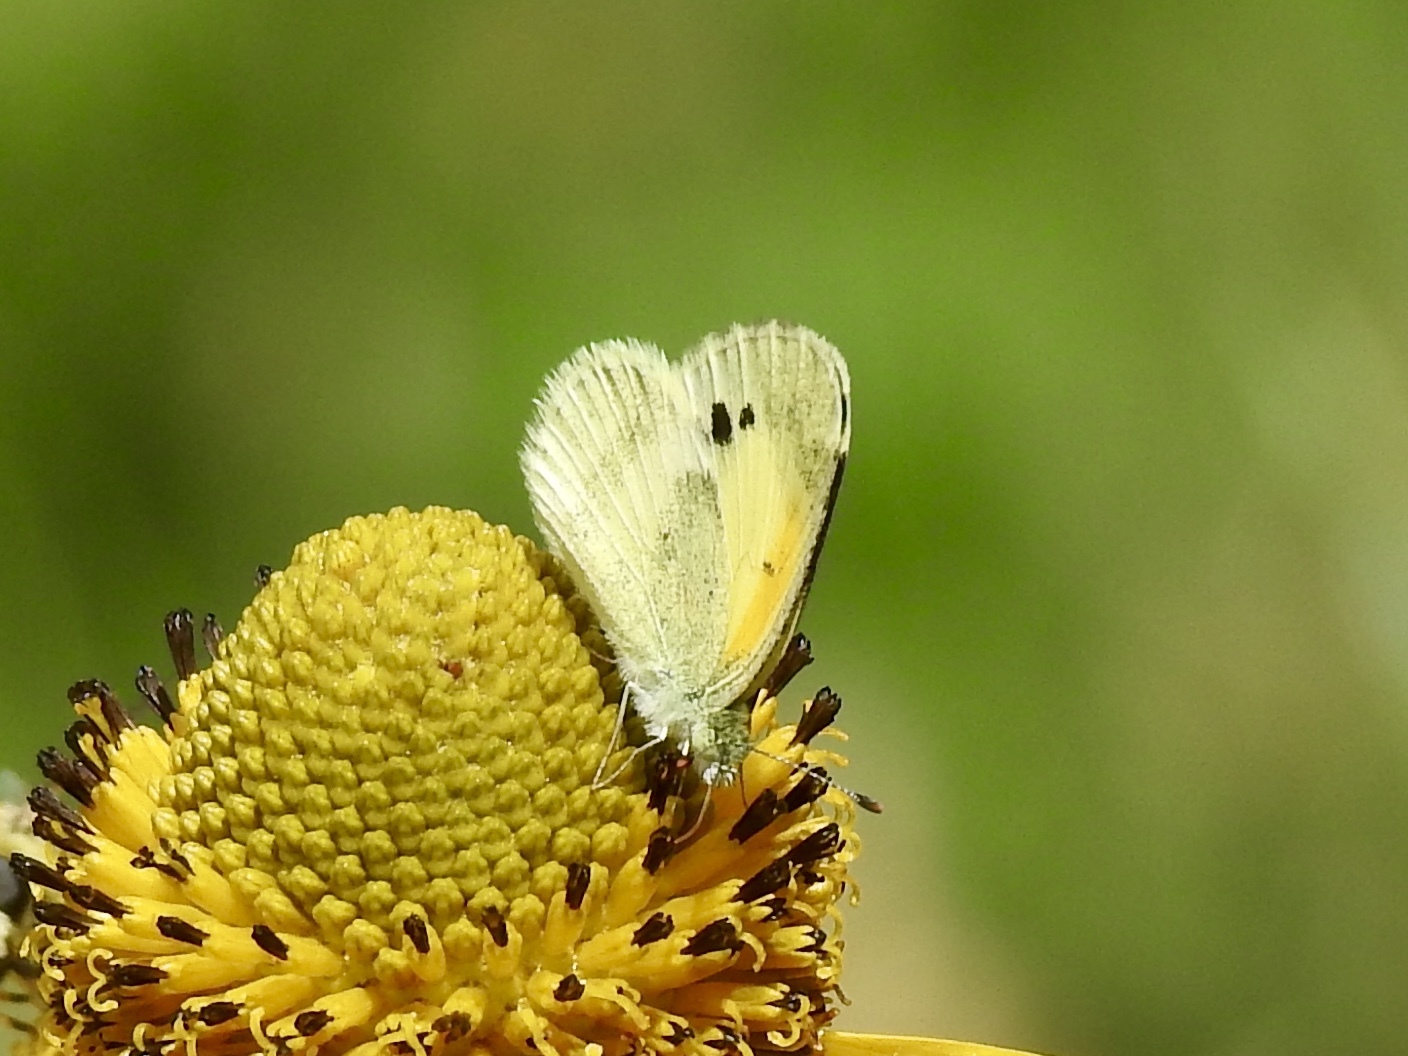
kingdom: Animalia
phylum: Arthropoda
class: Insecta
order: Lepidoptera
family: Pieridae
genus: Nathalis
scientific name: Nathalis iole
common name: Dainty sulphur
